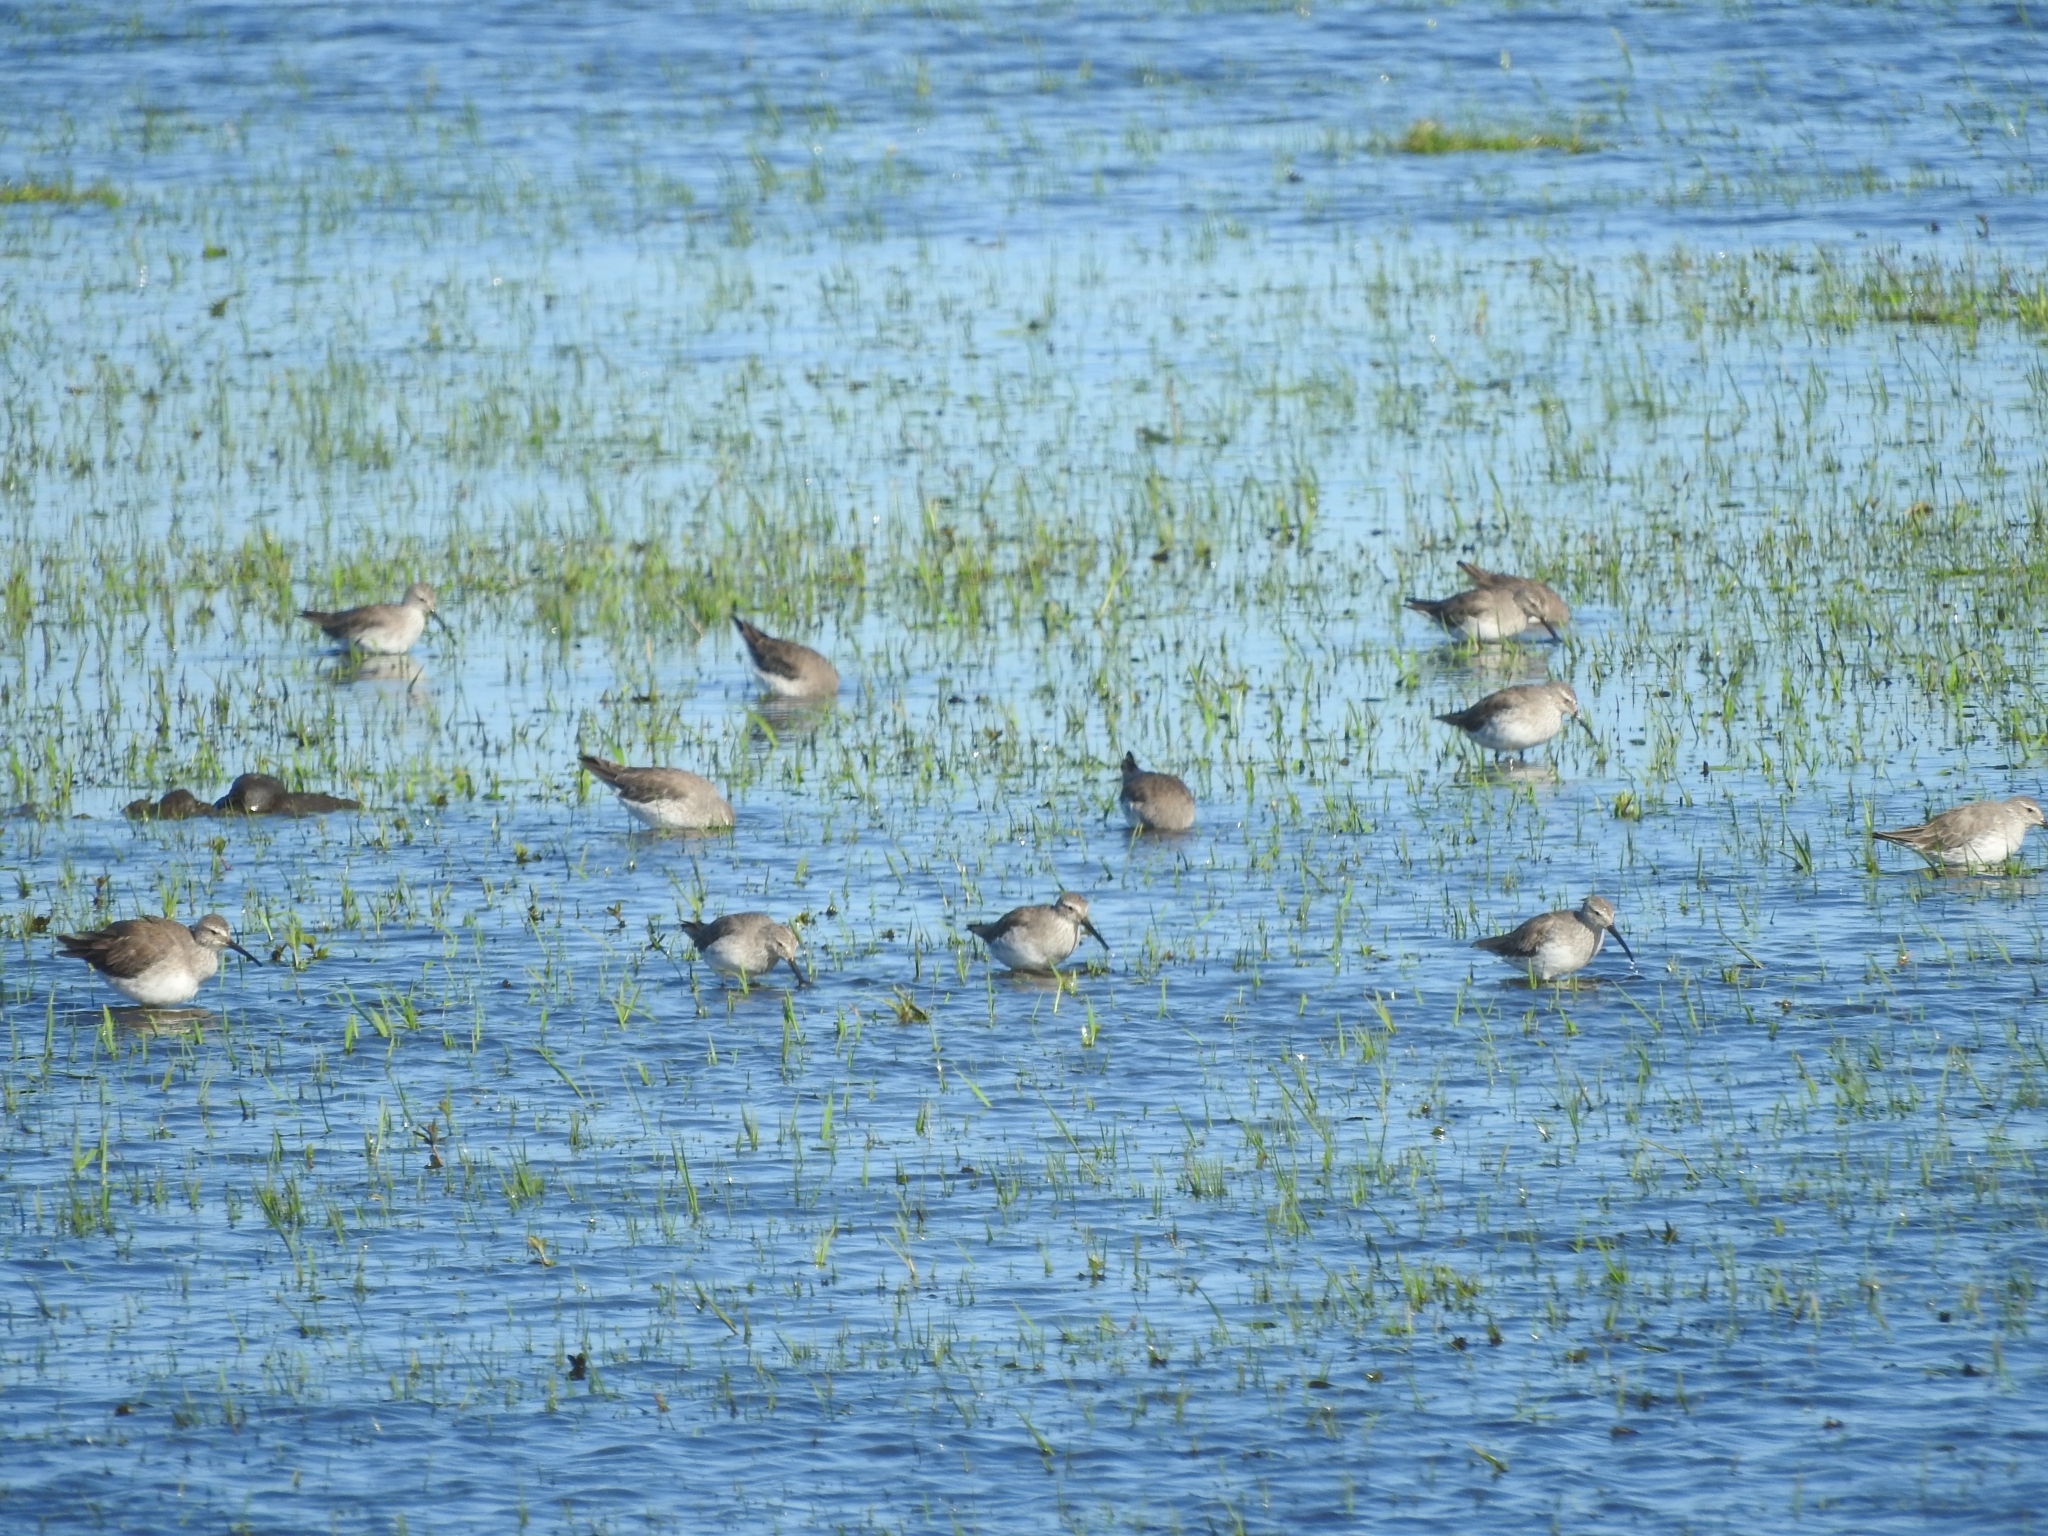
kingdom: Animalia
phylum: Chordata
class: Aves
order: Charadriiformes
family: Scolopacidae
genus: Calidris
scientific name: Calidris himantopus
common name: Stilt sandpiper
